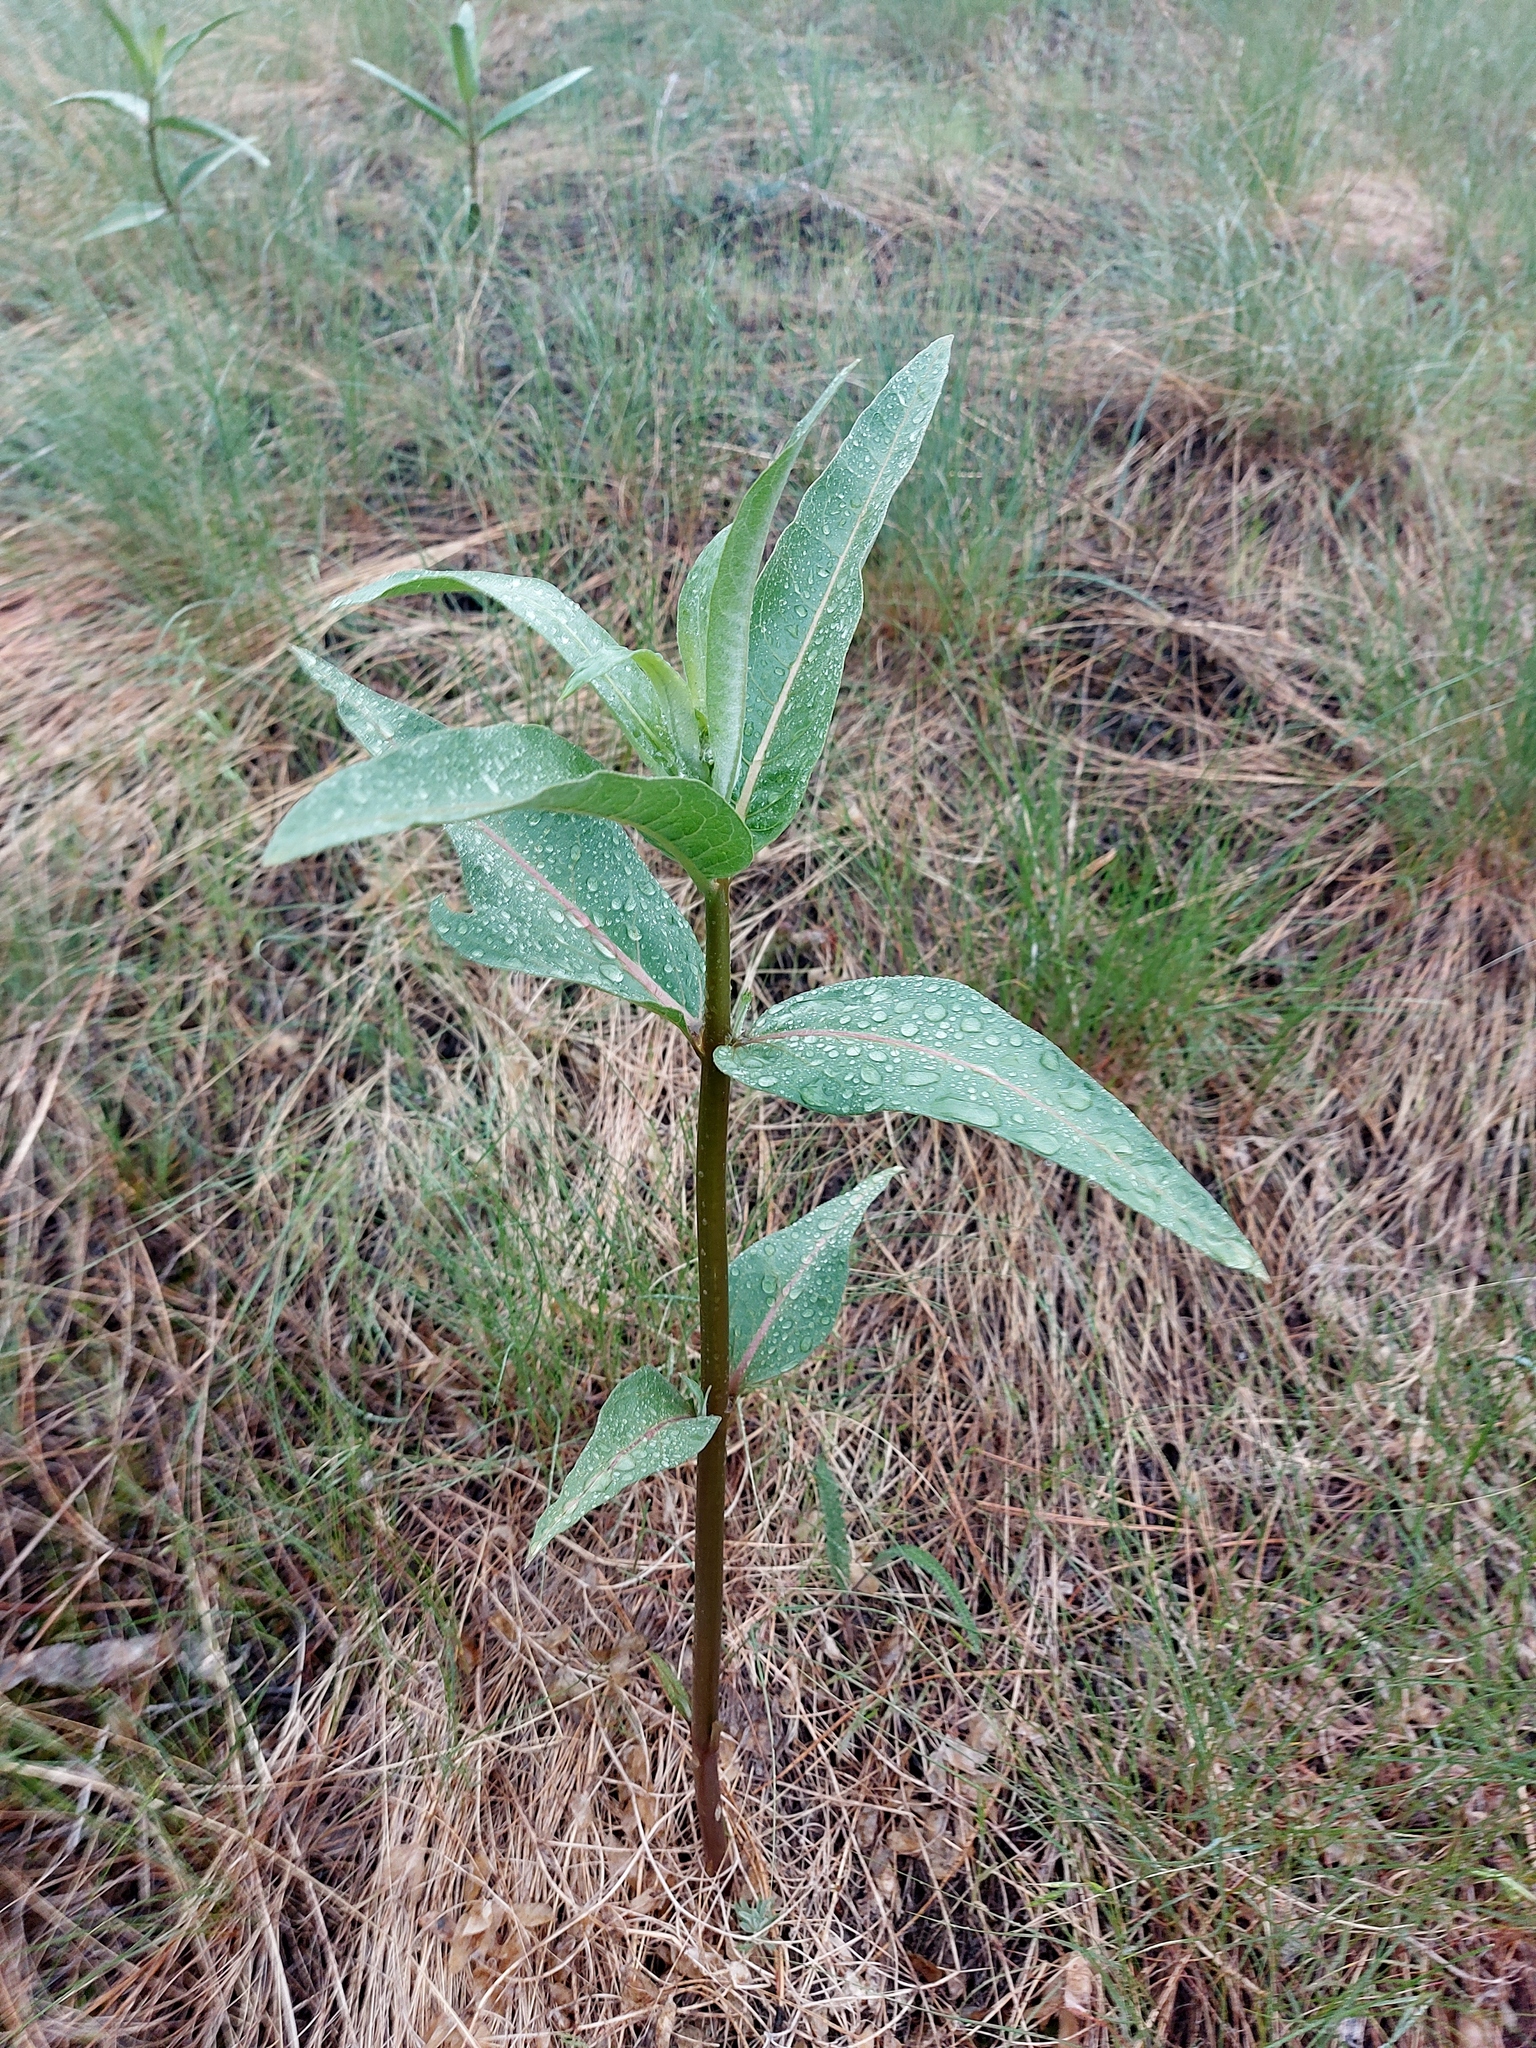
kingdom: Plantae
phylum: Tracheophyta
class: Magnoliopsida
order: Gentianales
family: Apocynaceae
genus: Asclepias
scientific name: Asclepias speciosa
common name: Showy milkweed
